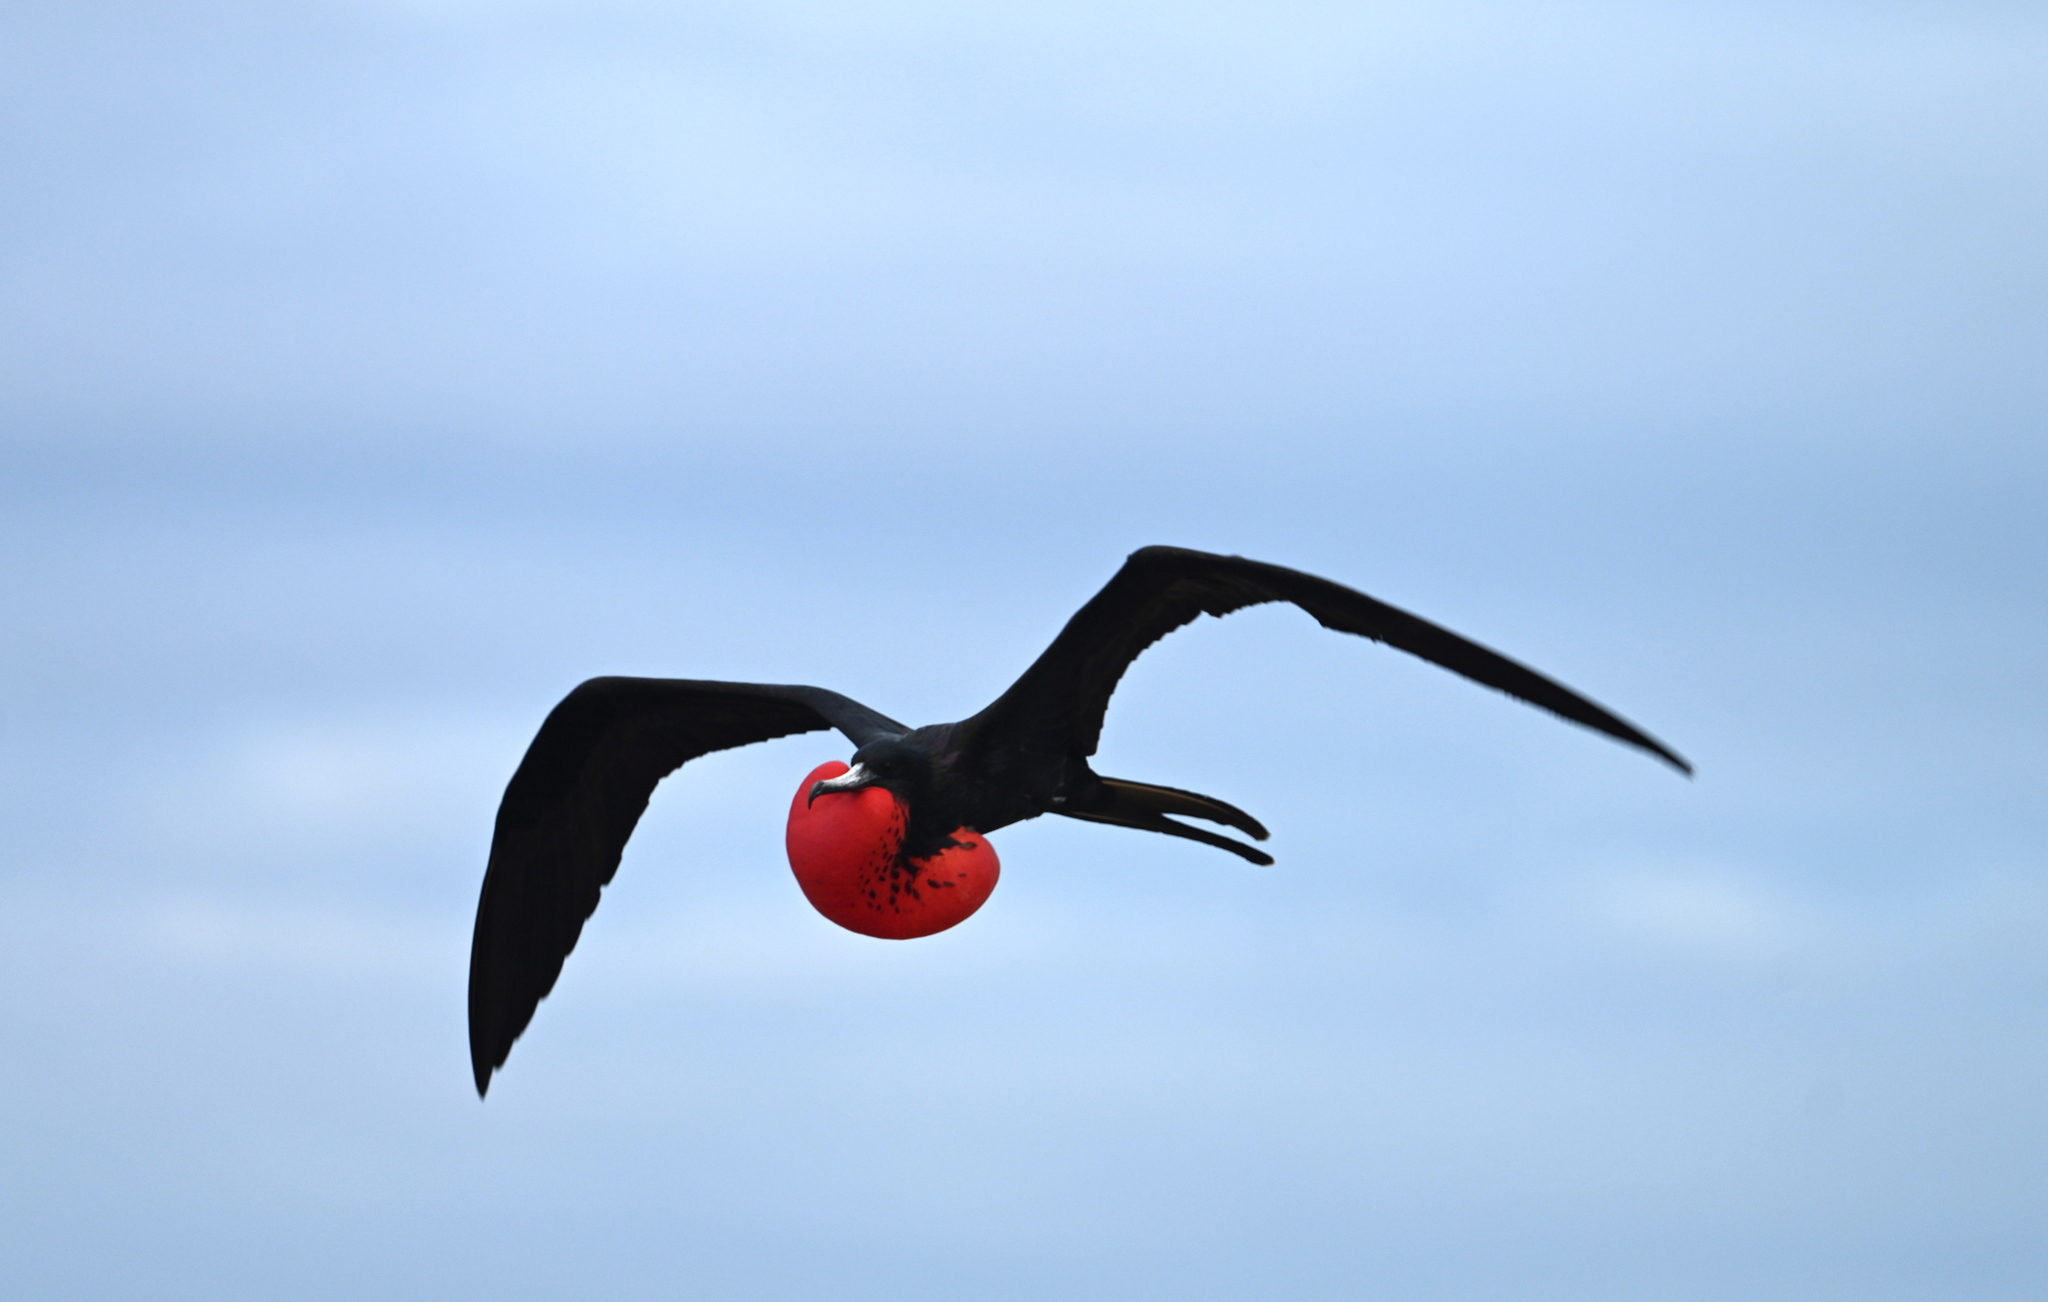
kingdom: Animalia
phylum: Chordata
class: Aves
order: Suliformes
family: Fregatidae
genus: Fregata
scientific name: Fregata magnificens
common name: Magnificent frigatebird
